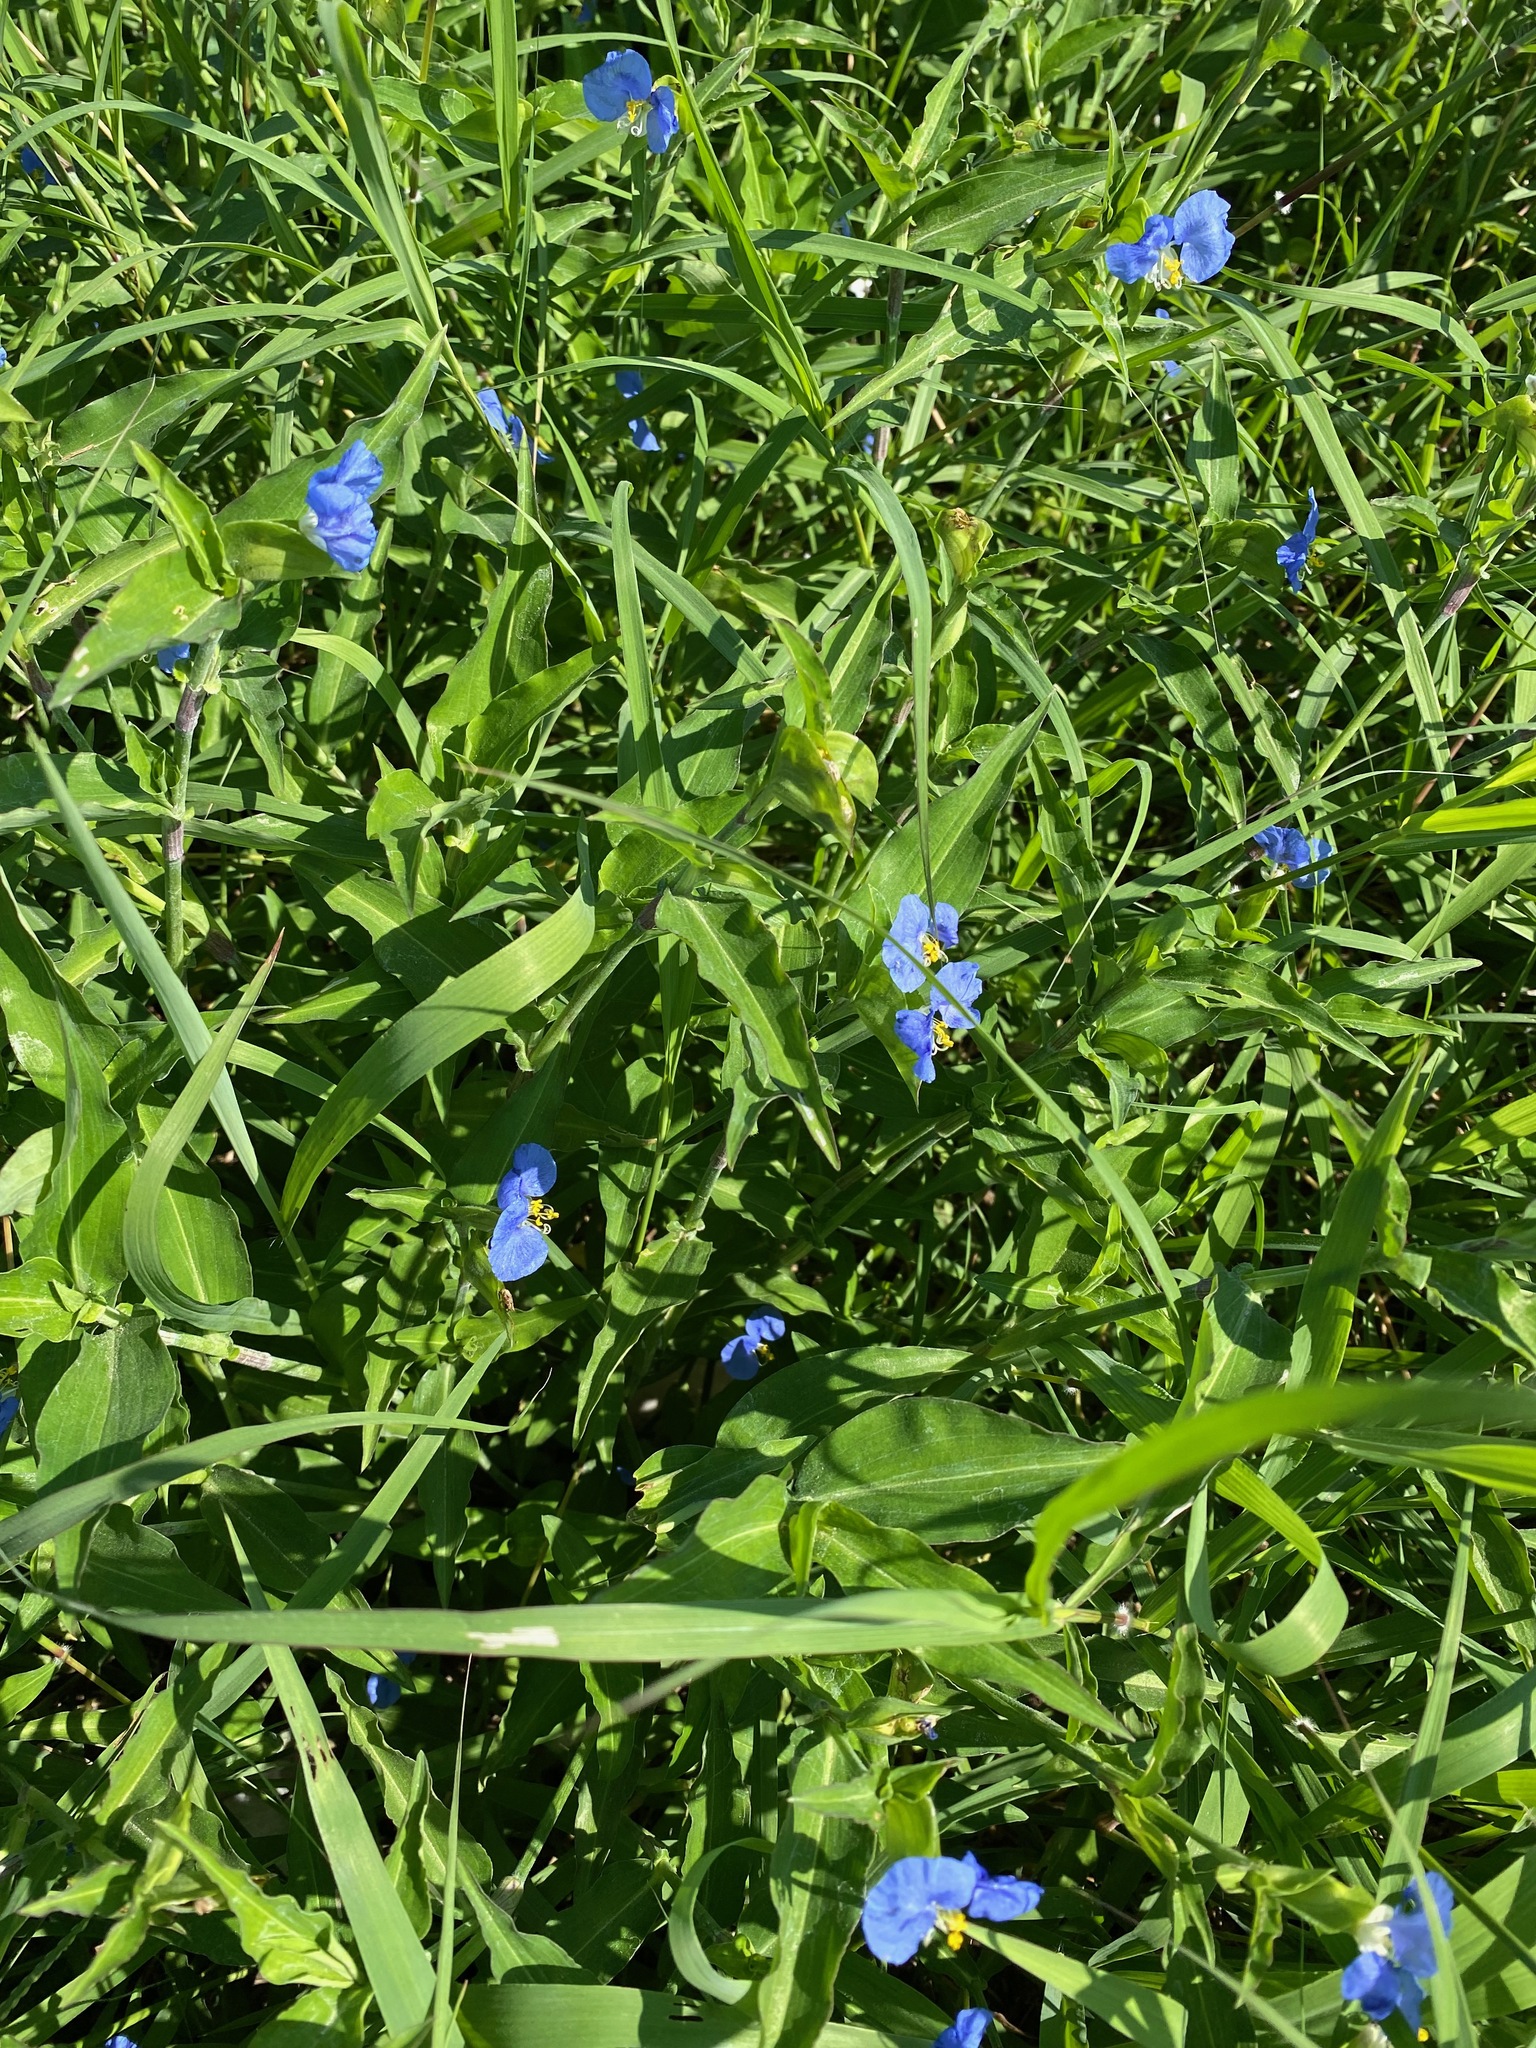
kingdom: Plantae
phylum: Tracheophyta
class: Liliopsida
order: Commelinales
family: Commelinaceae
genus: Commelina
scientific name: Commelina erecta
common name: Blousel blommetjie
